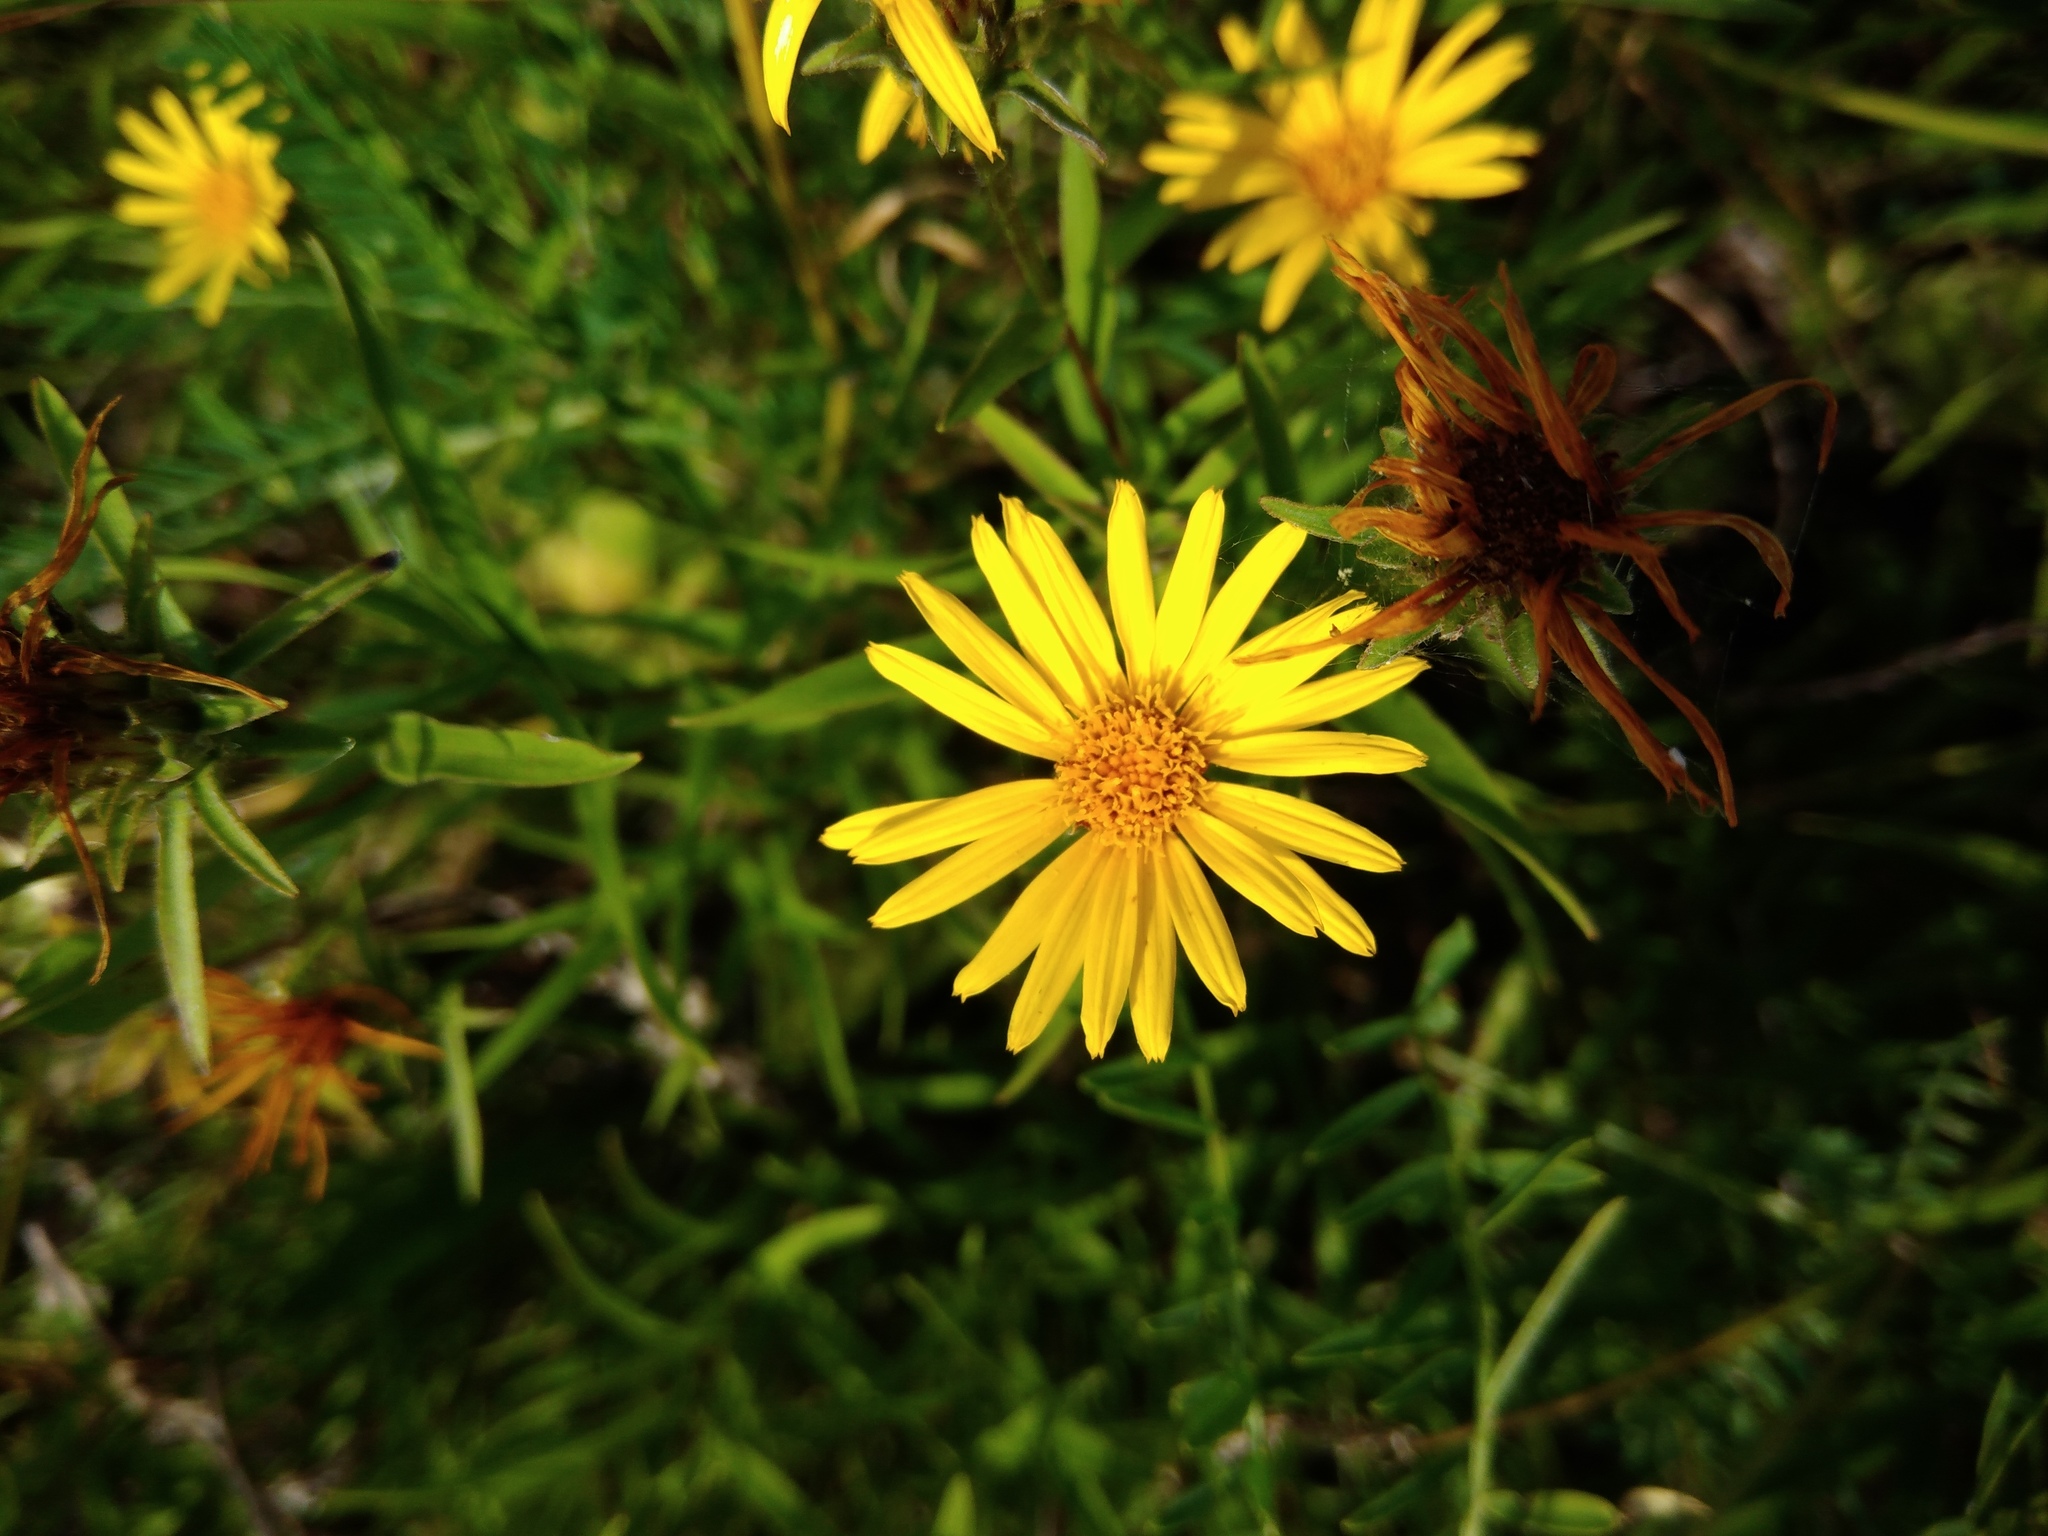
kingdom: Plantae
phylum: Tracheophyta
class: Magnoliopsida
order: Asterales
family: Asteraceae
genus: Pentanema
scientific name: Pentanema ensifolium
